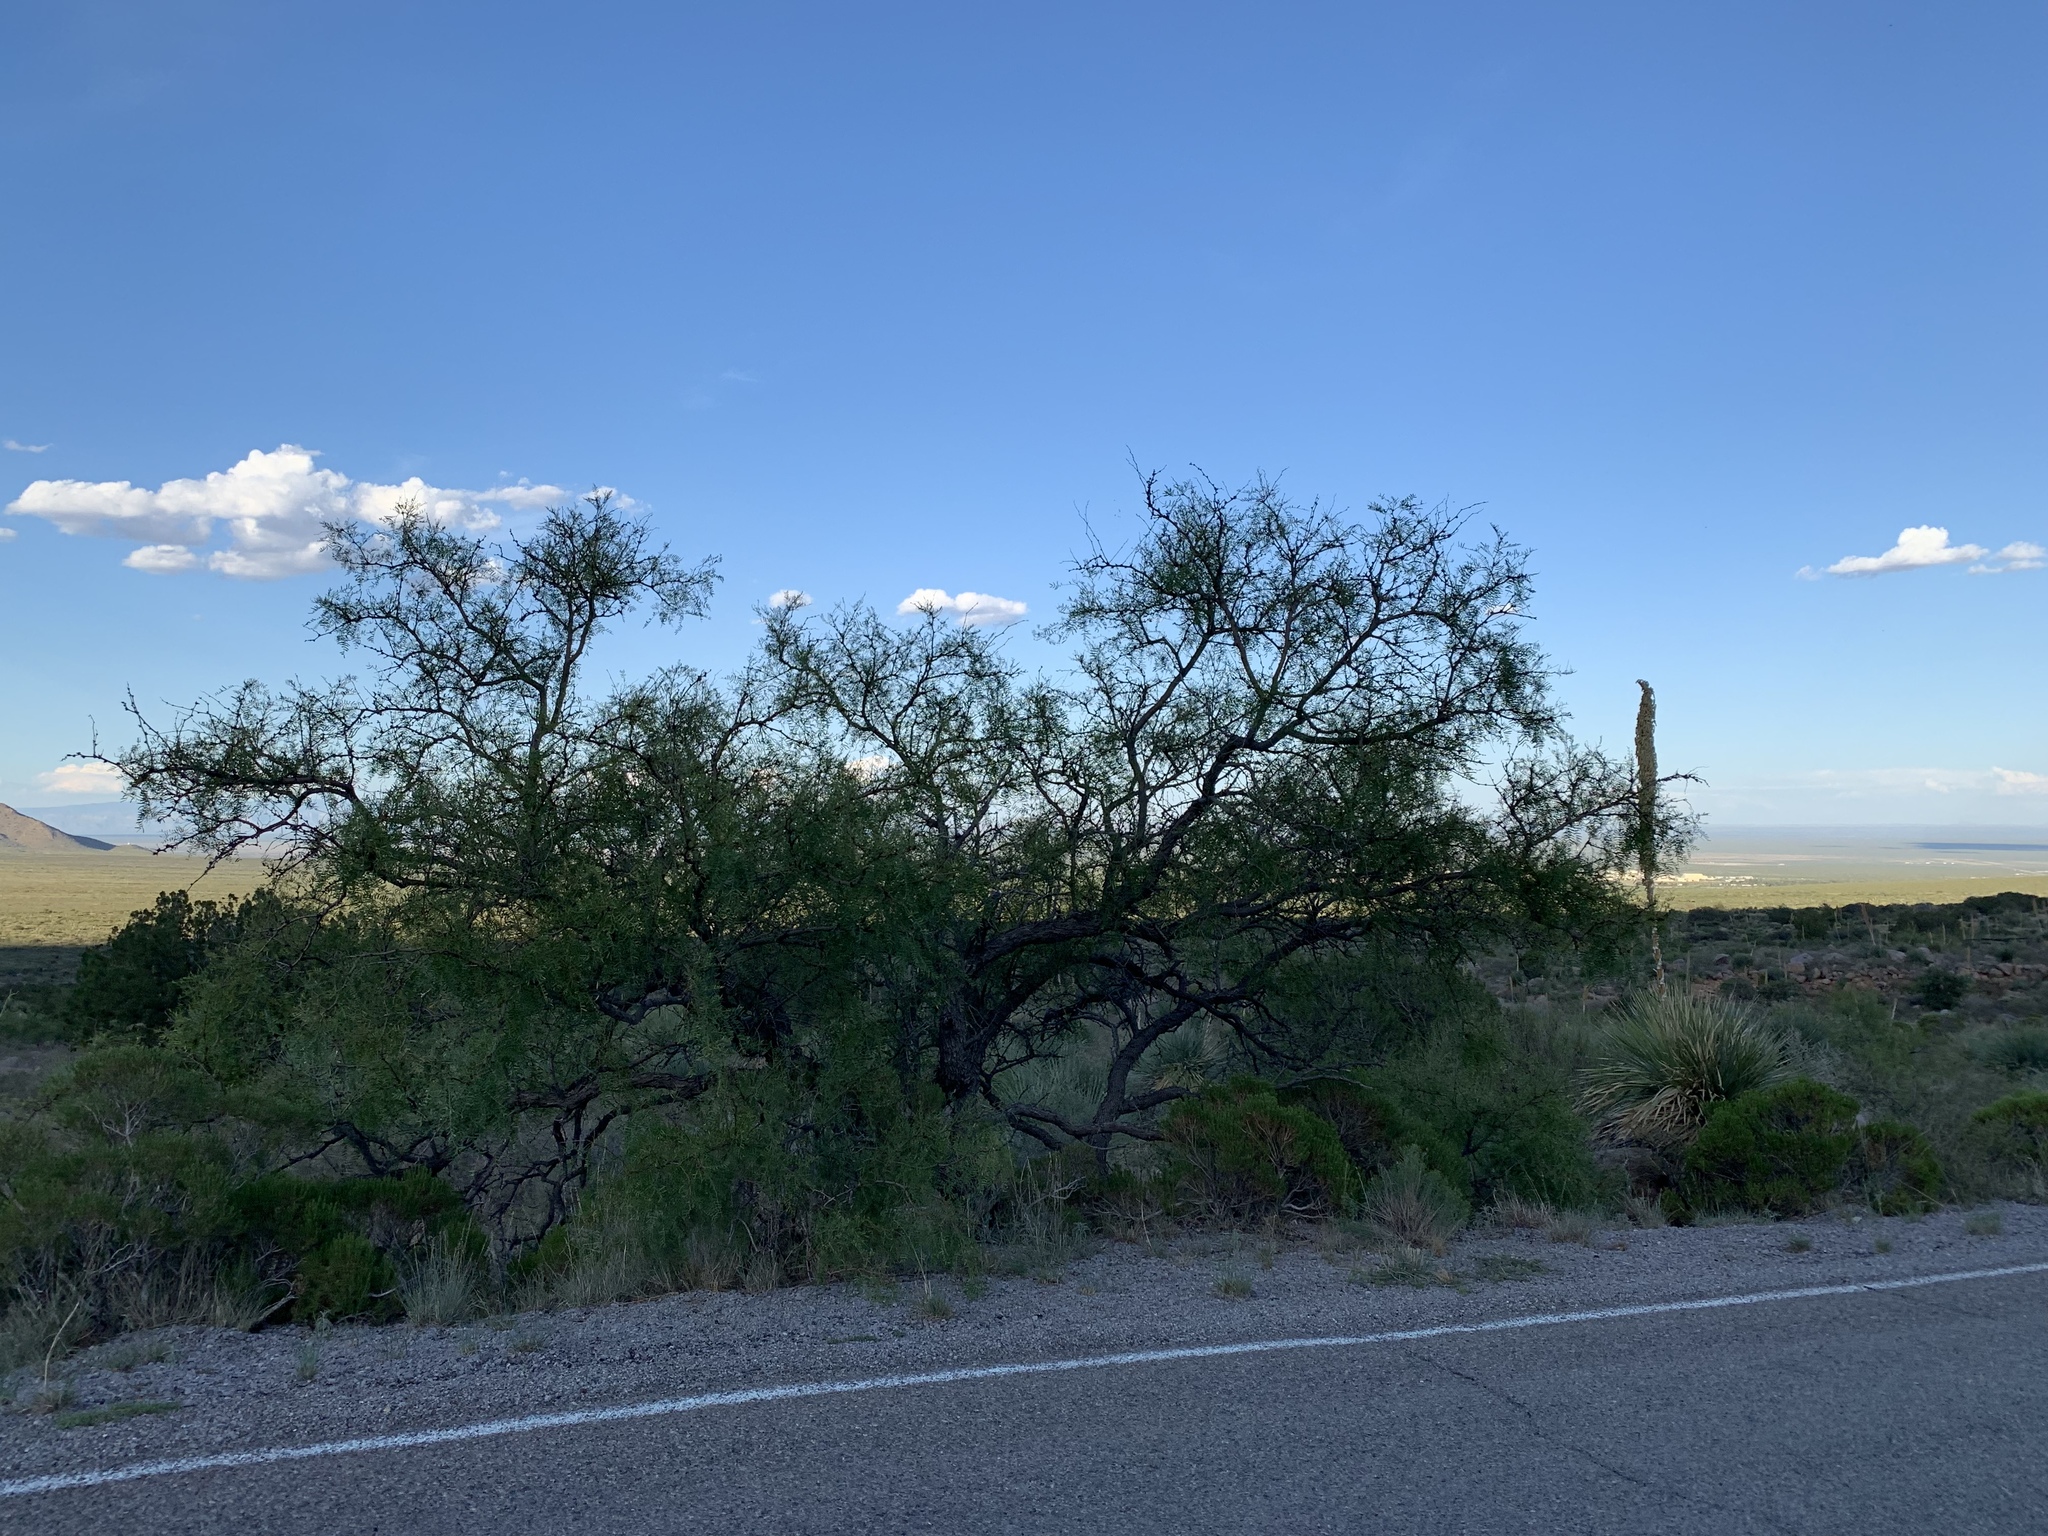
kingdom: Plantae
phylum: Tracheophyta
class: Magnoliopsida
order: Fabales
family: Fabaceae
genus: Prosopis
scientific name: Prosopis glandulosa
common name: Honey mesquite
